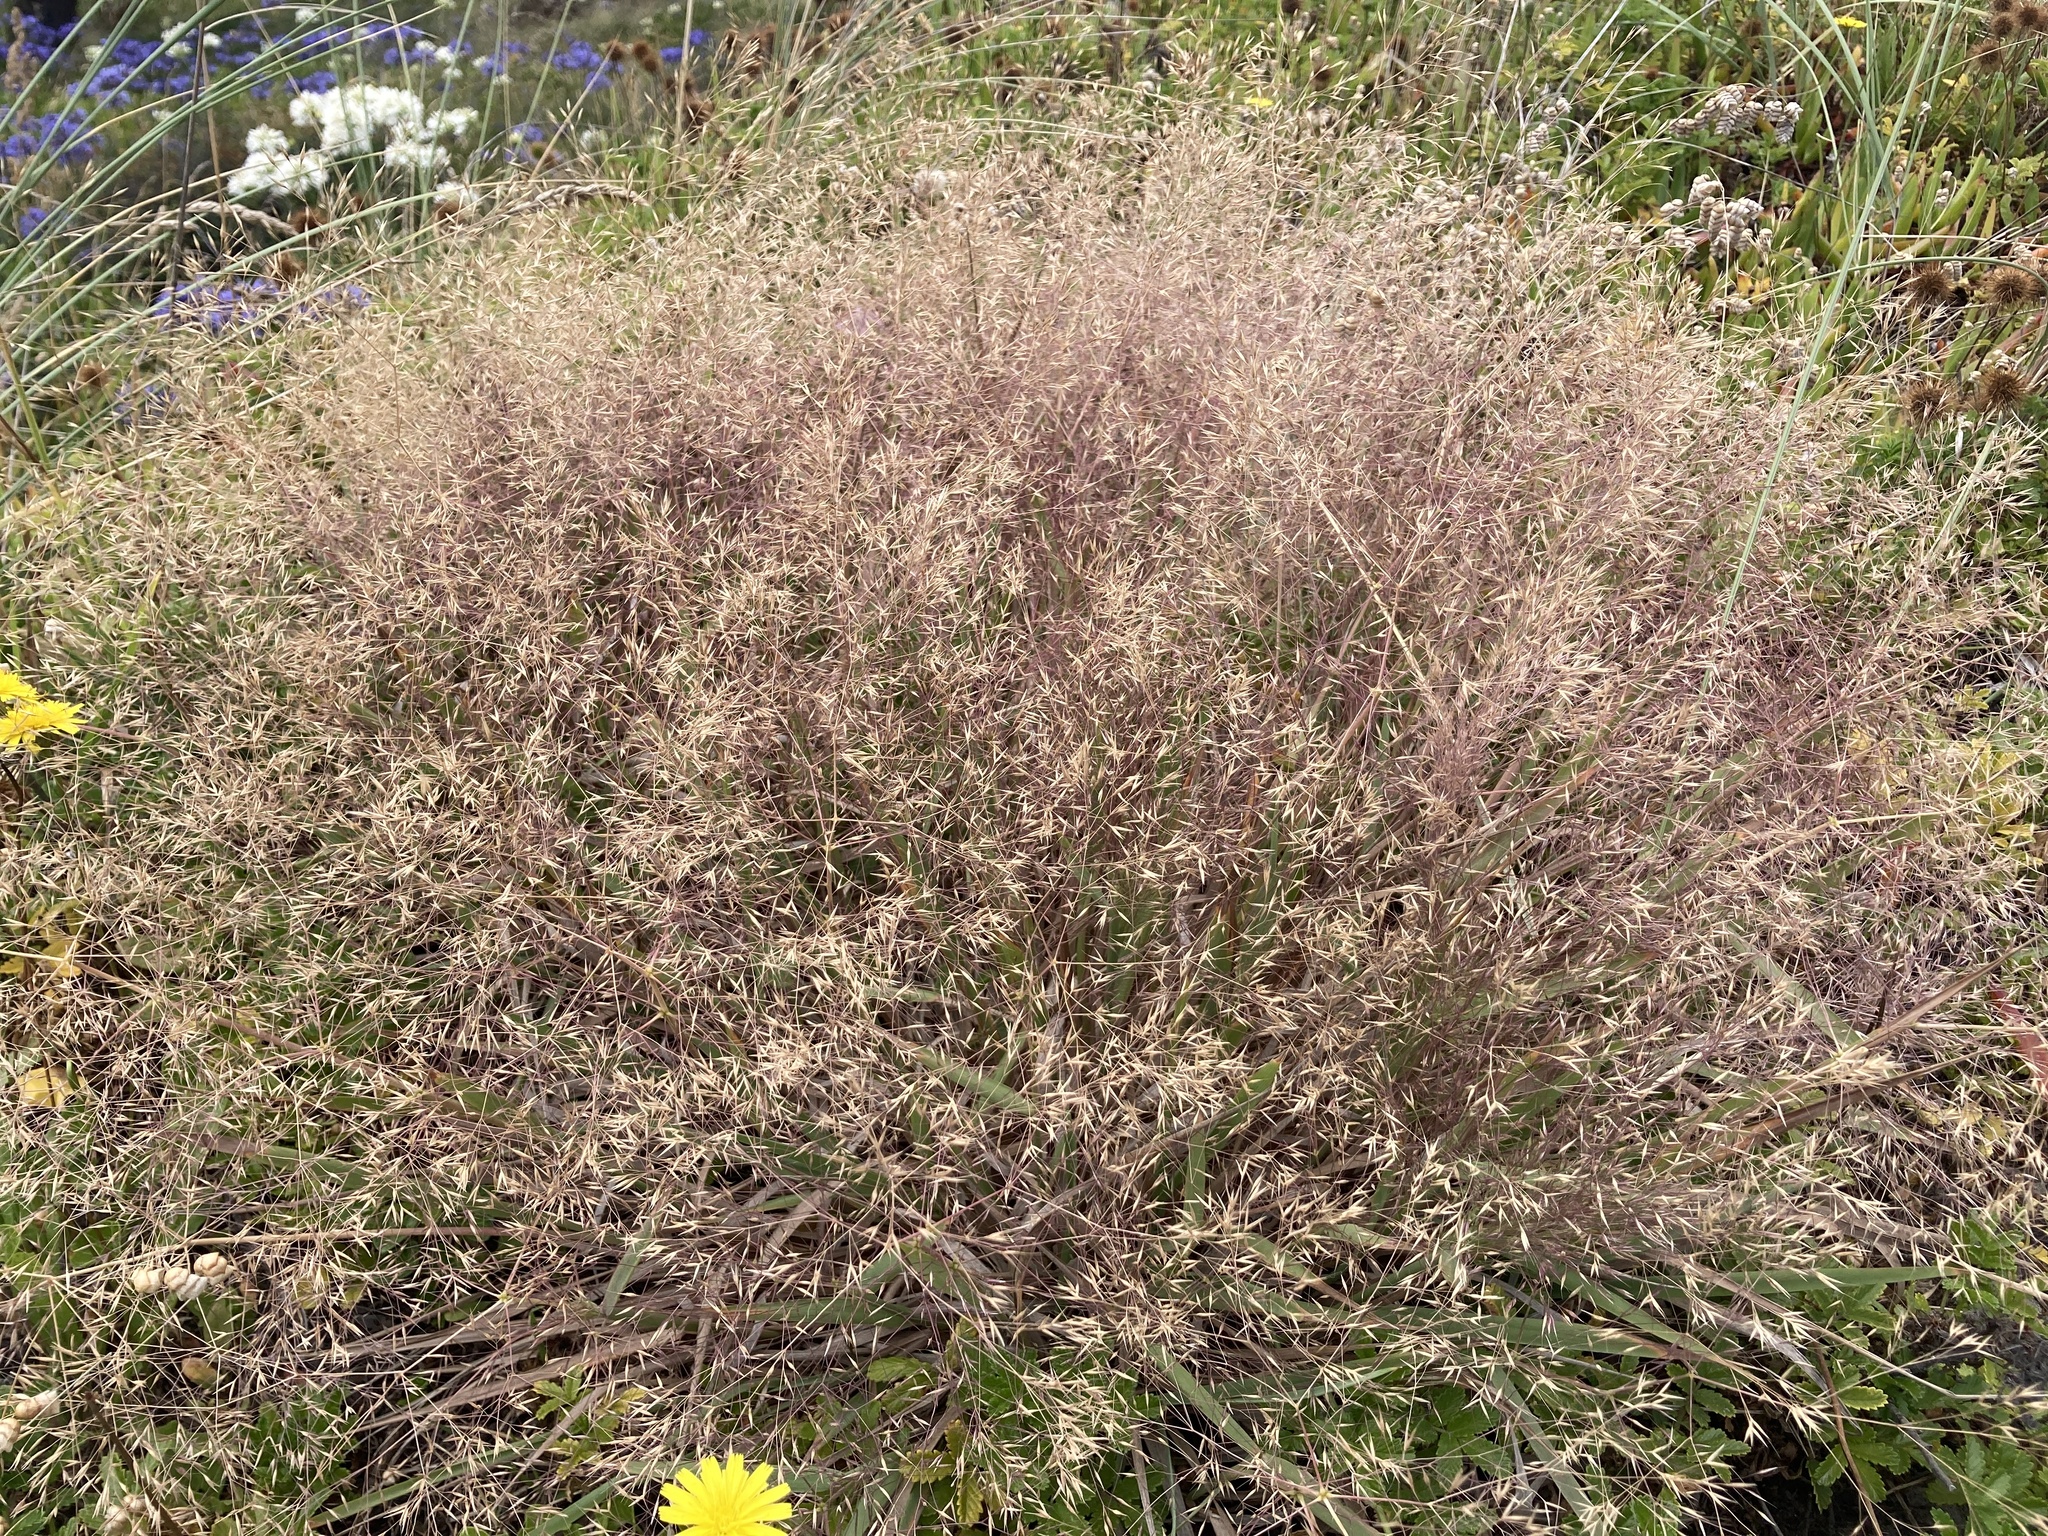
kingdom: Plantae
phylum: Tracheophyta
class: Liliopsida
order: Poales
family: Poaceae
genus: Lachnagrostis
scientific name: Lachnagrostis billardierei
